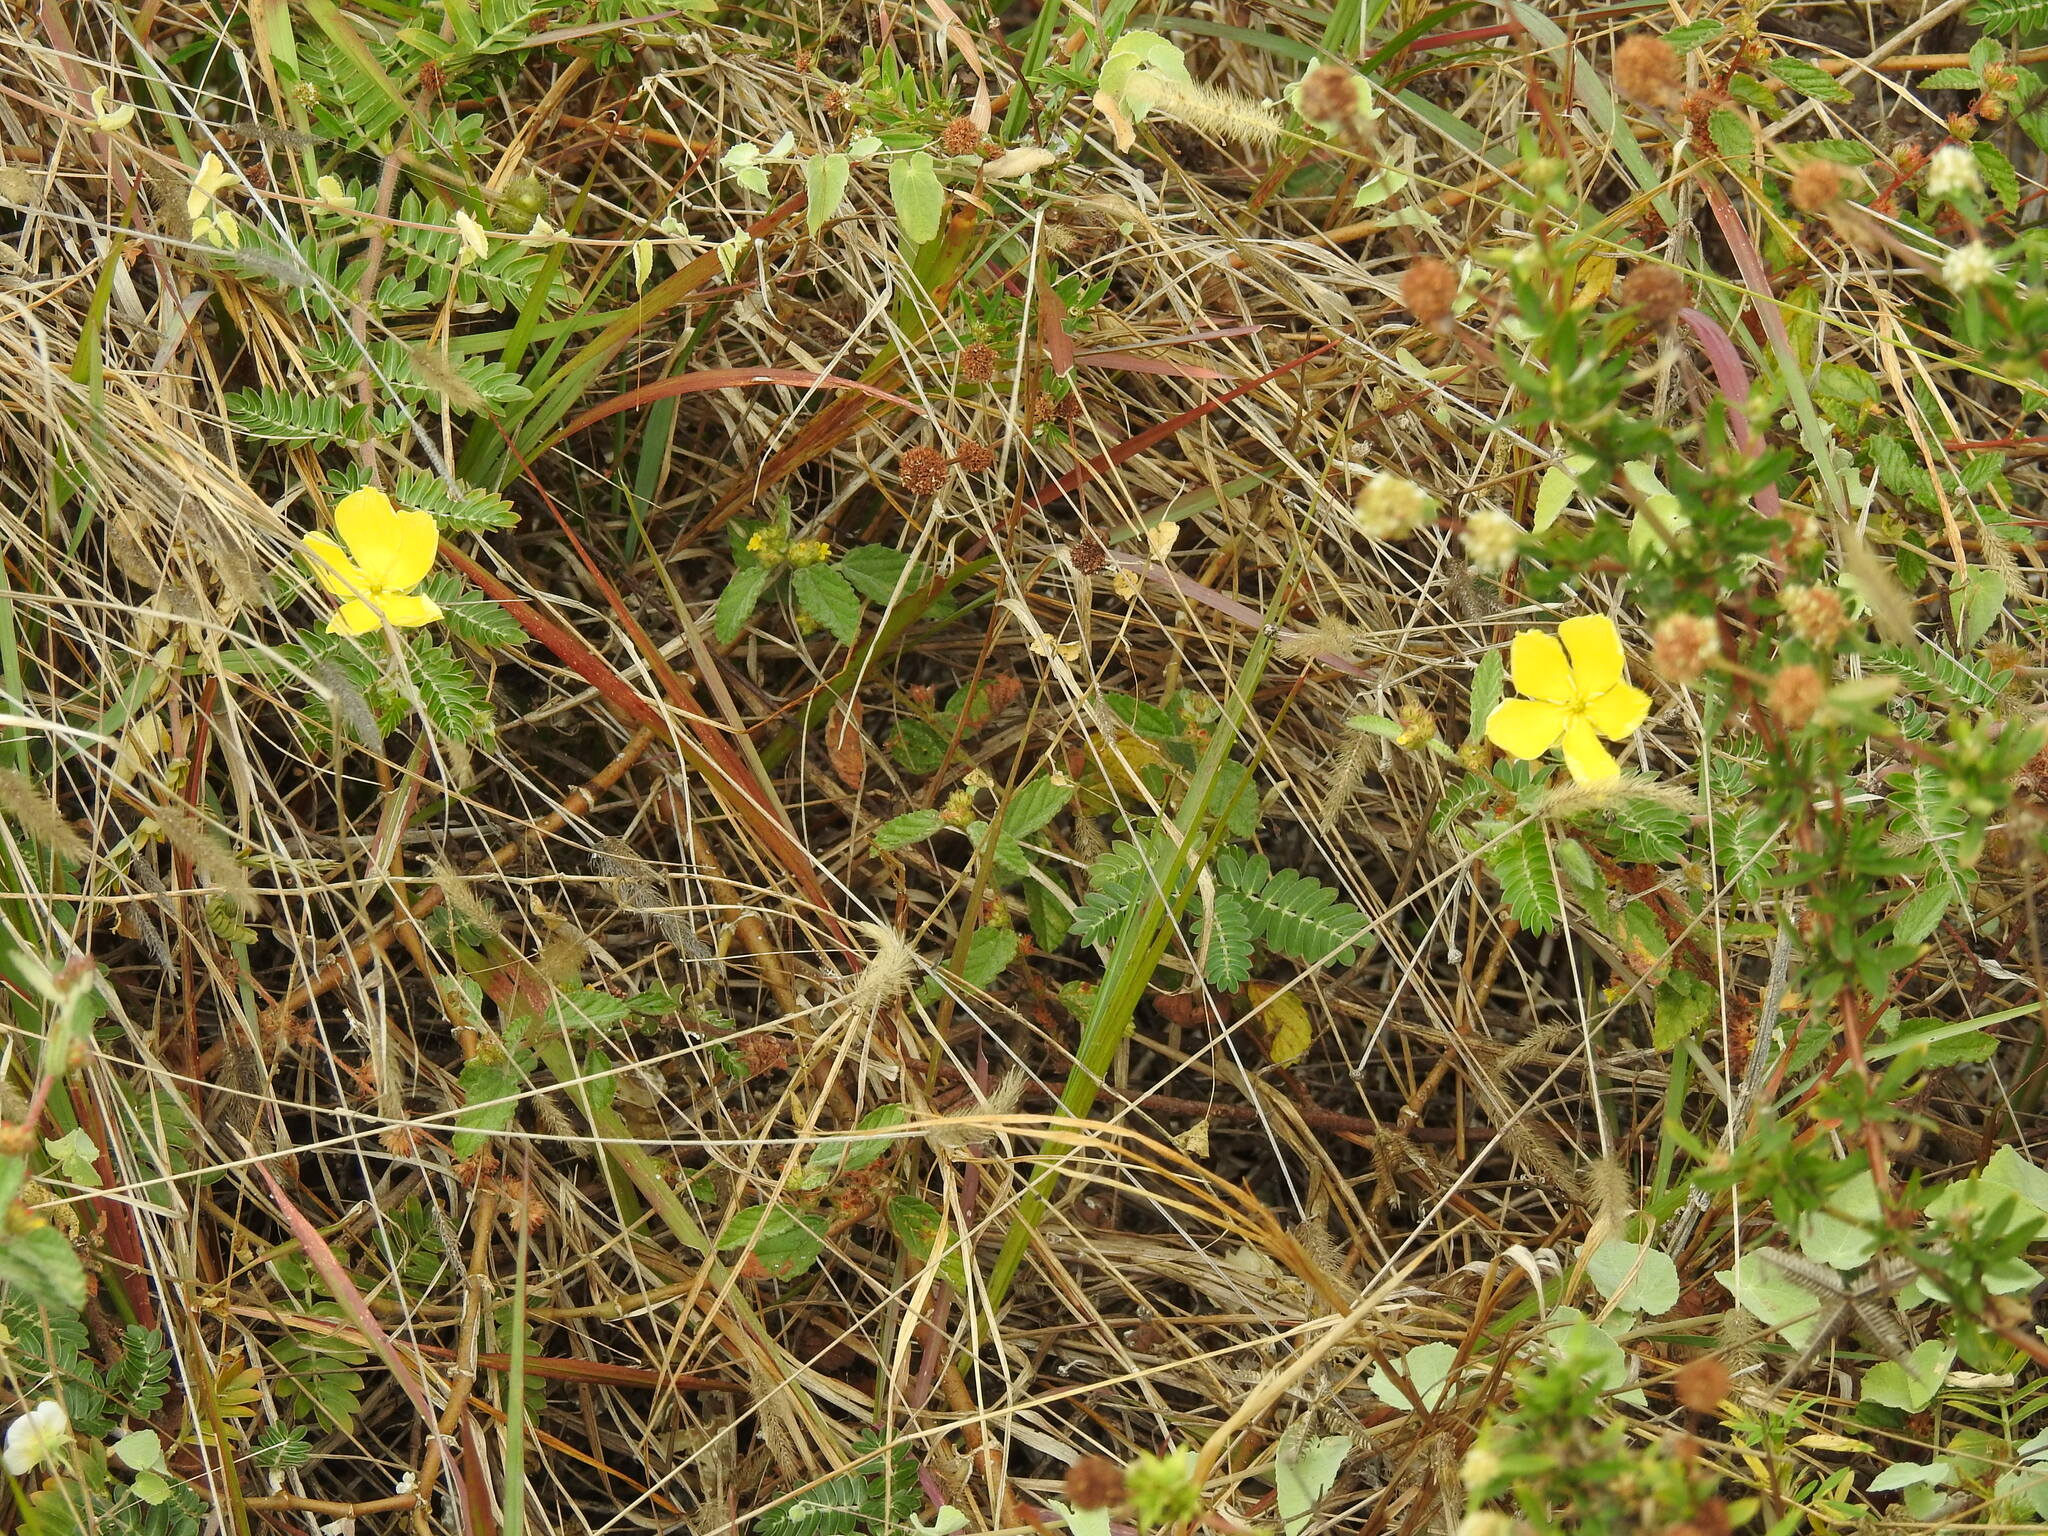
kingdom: Plantae
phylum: Tracheophyta
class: Magnoliopsida
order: Zygophyllales
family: Zygophyllaceae
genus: Tribulus
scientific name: Tribulus cistoides
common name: Jamaican feverplant
